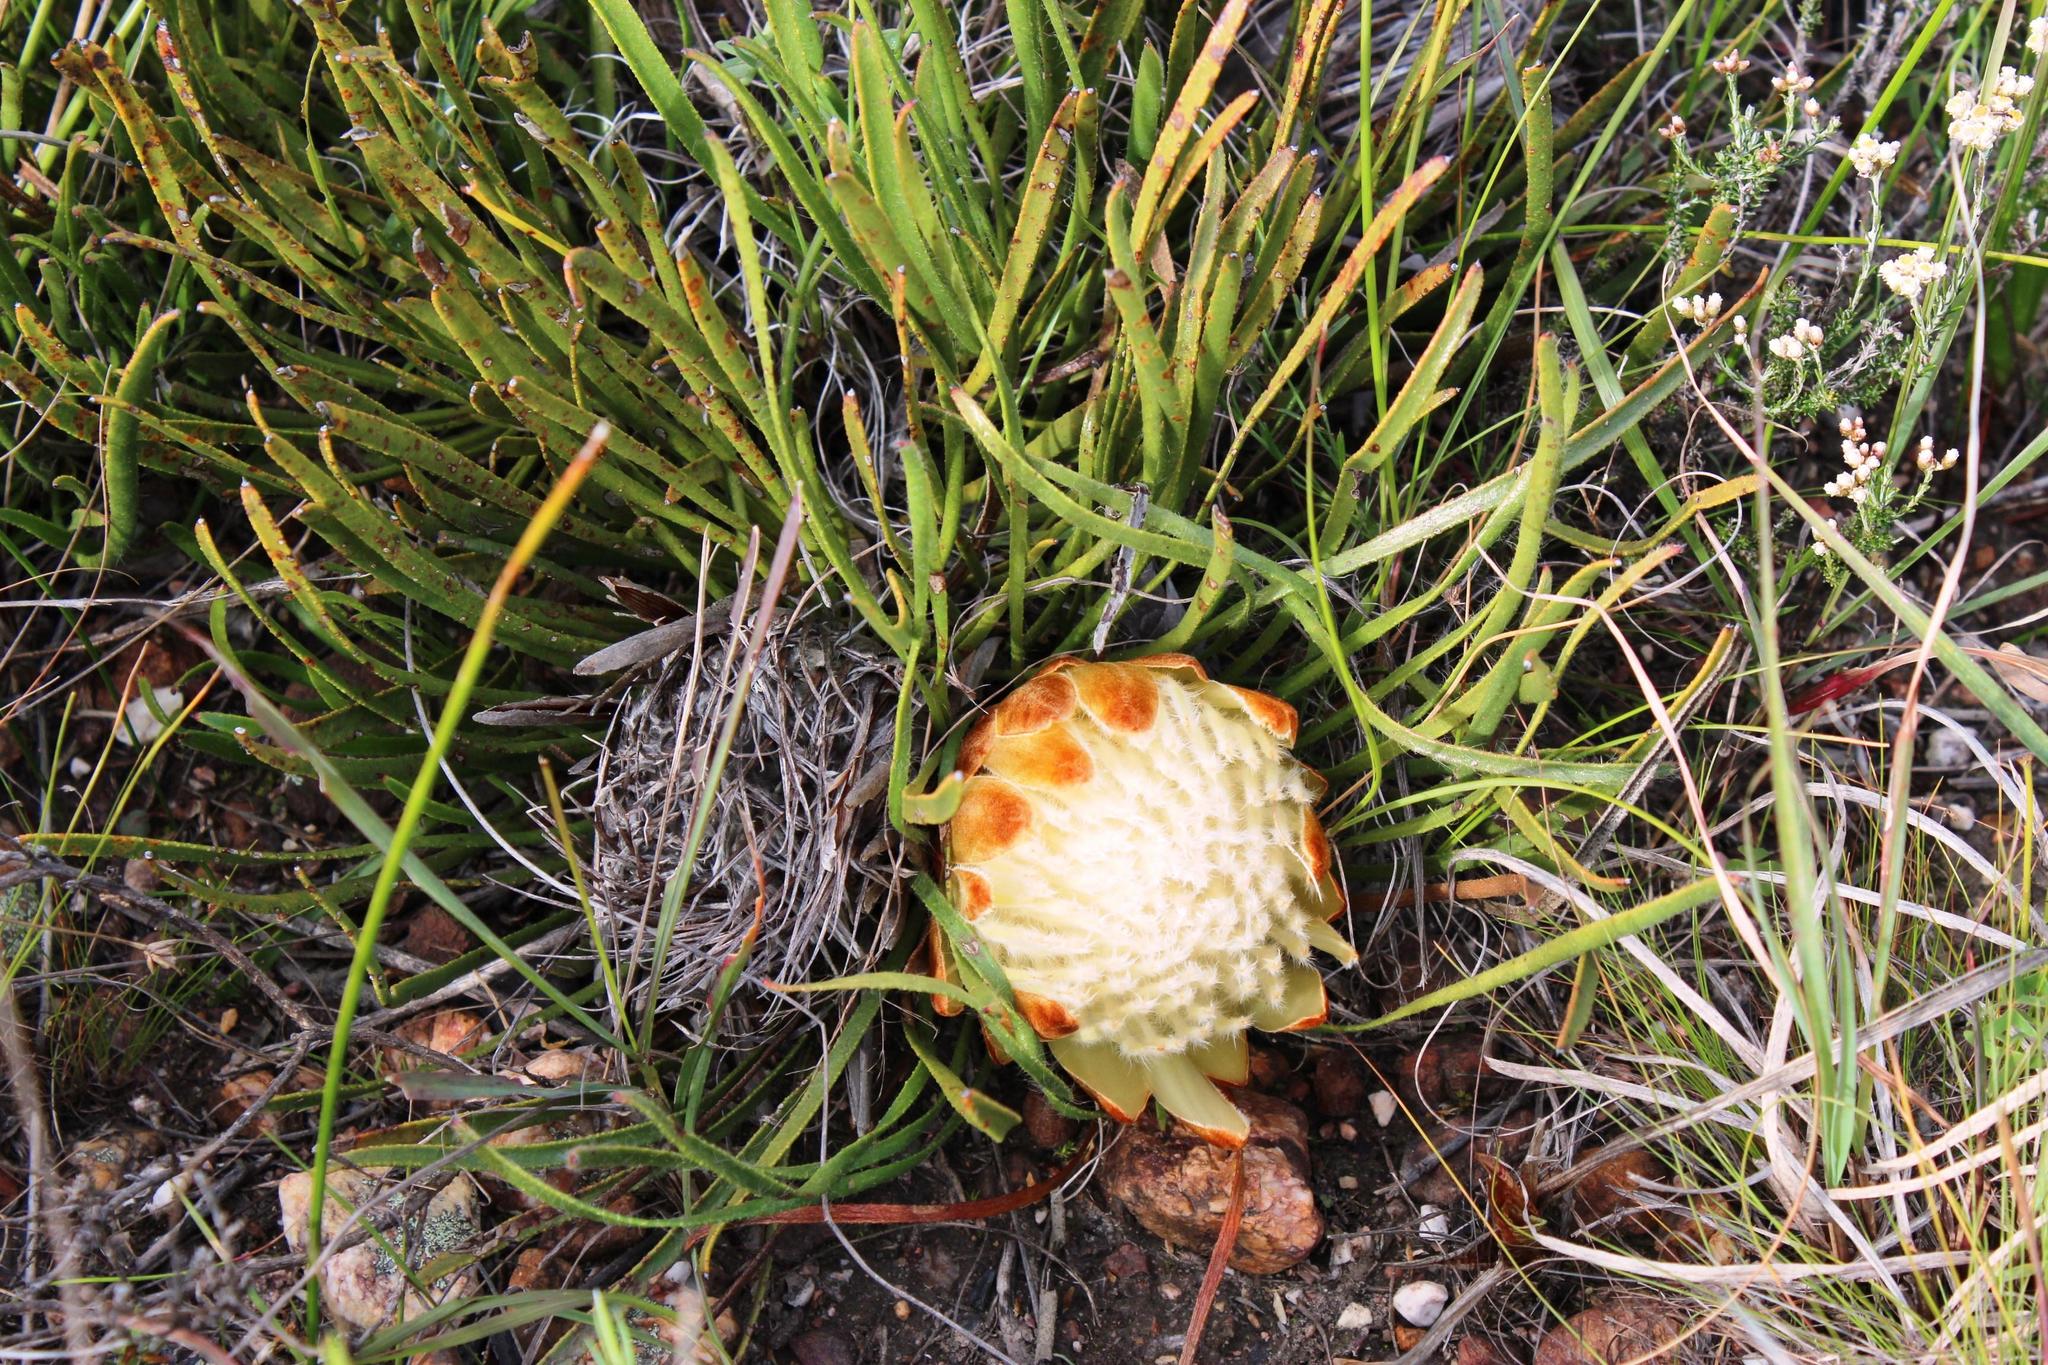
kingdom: Plantae
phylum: Tracheophyta
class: Magnoliopsida
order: Proteales
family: Proteaceae
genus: Protea
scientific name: Protea aspera
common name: Rough-leaf sugarbush
